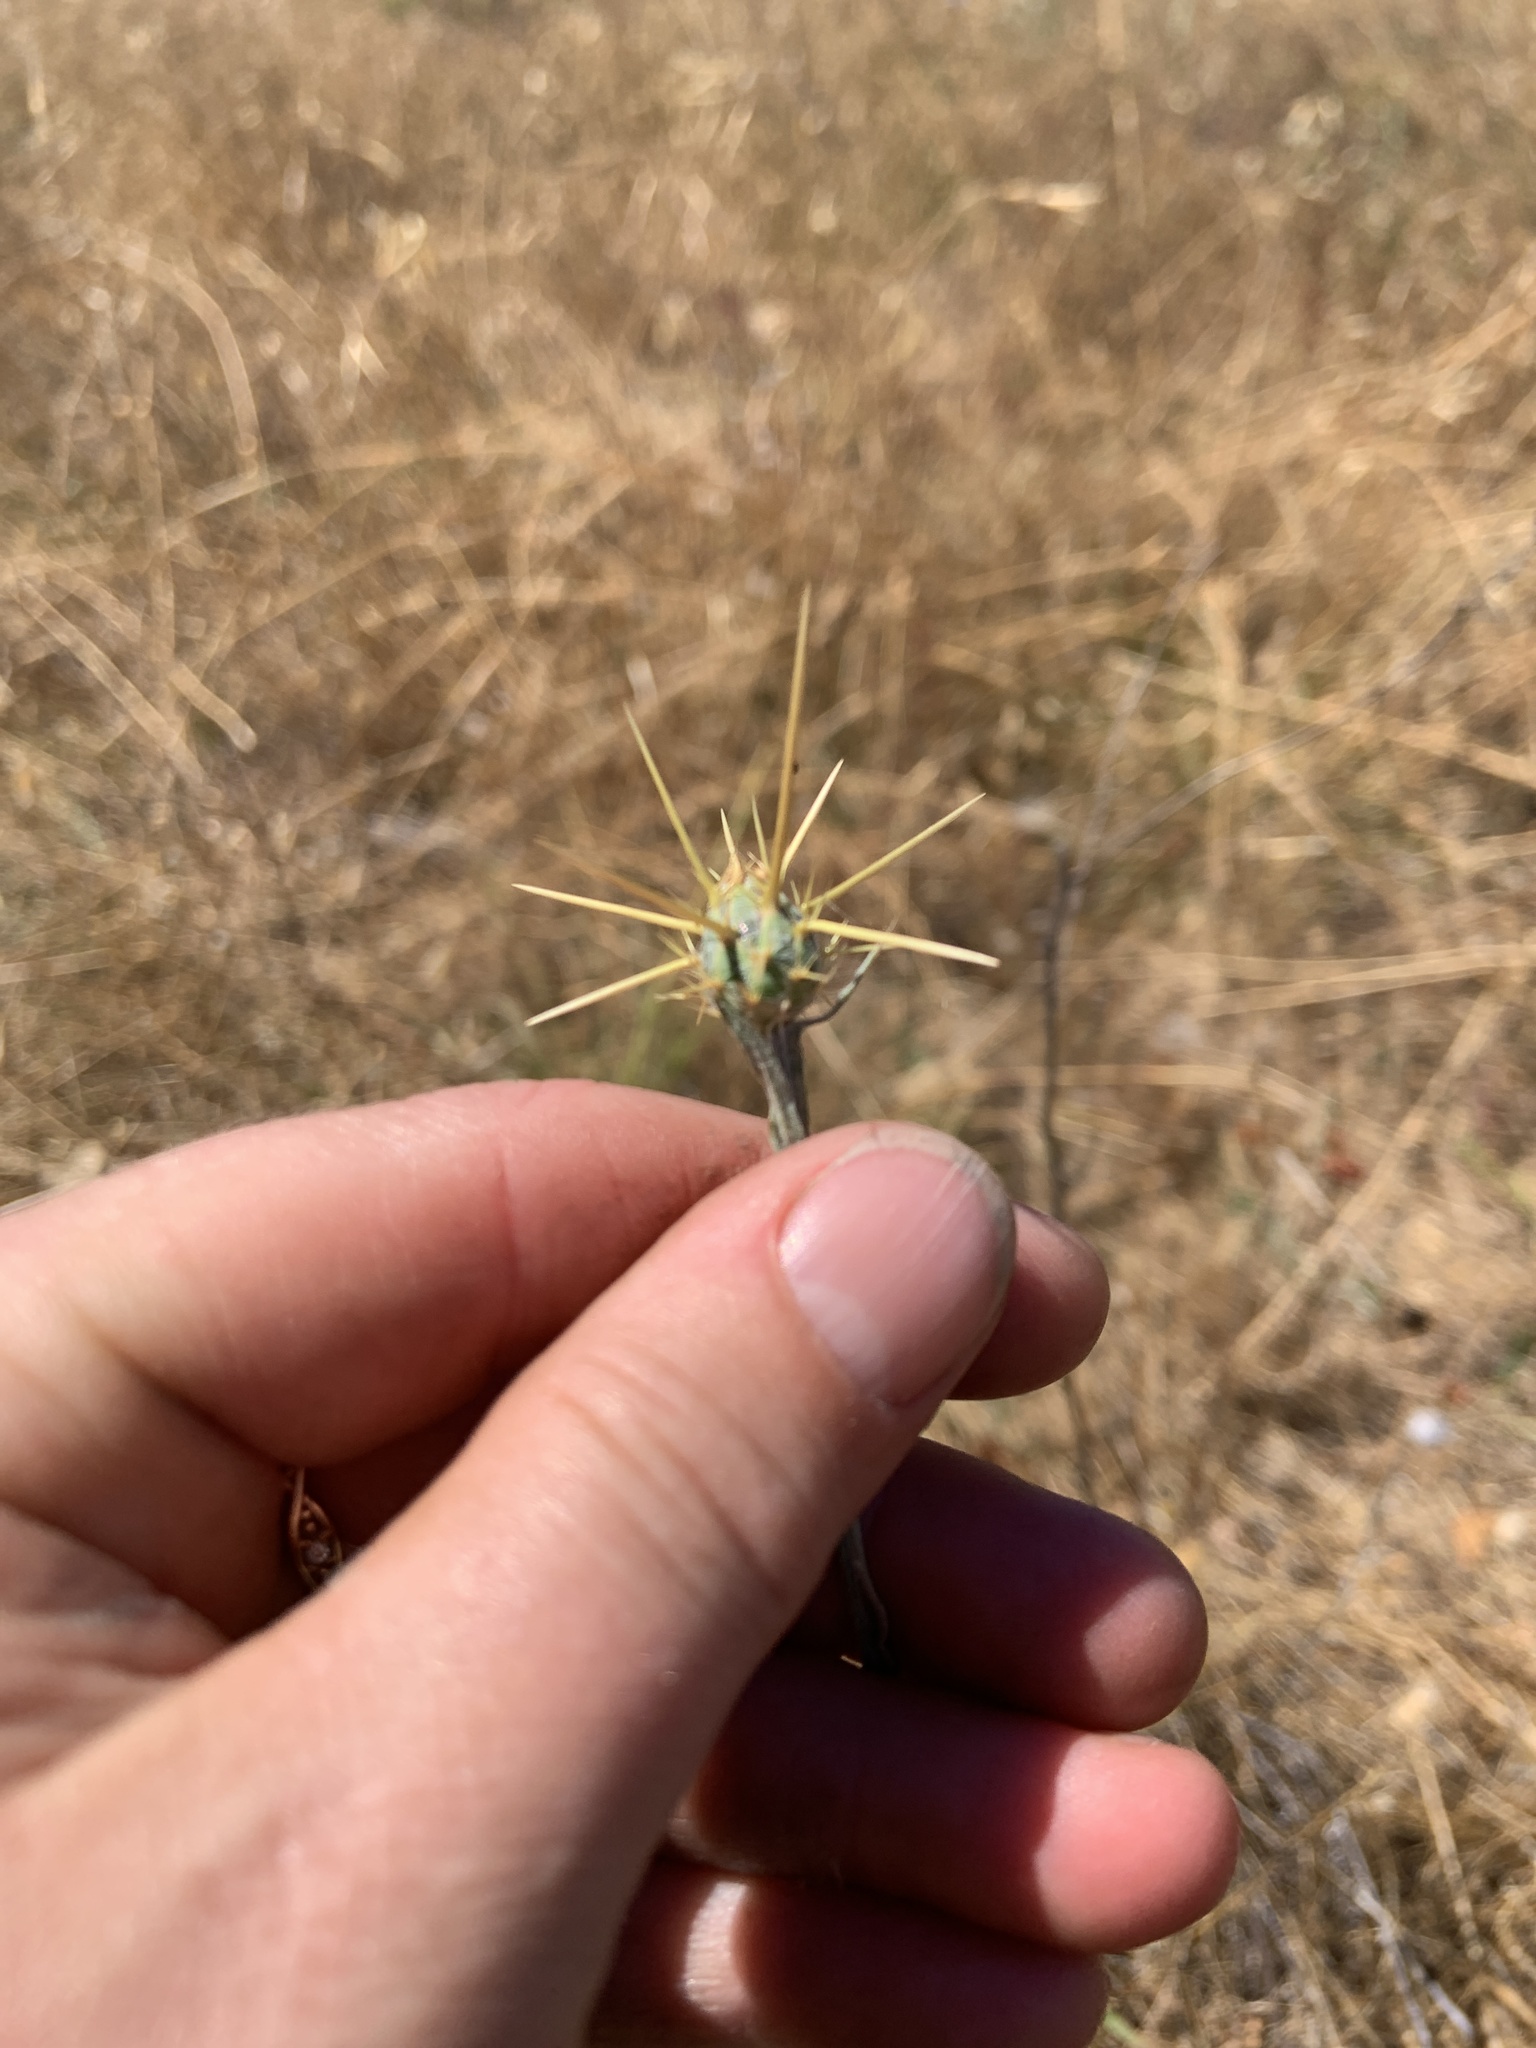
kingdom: Plantae
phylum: Tracheophyta
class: Magnoliopsida
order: Asterales
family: Asteraceae
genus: Centaurea
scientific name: Centaurea solstitialis
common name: Yellow star-thistle
